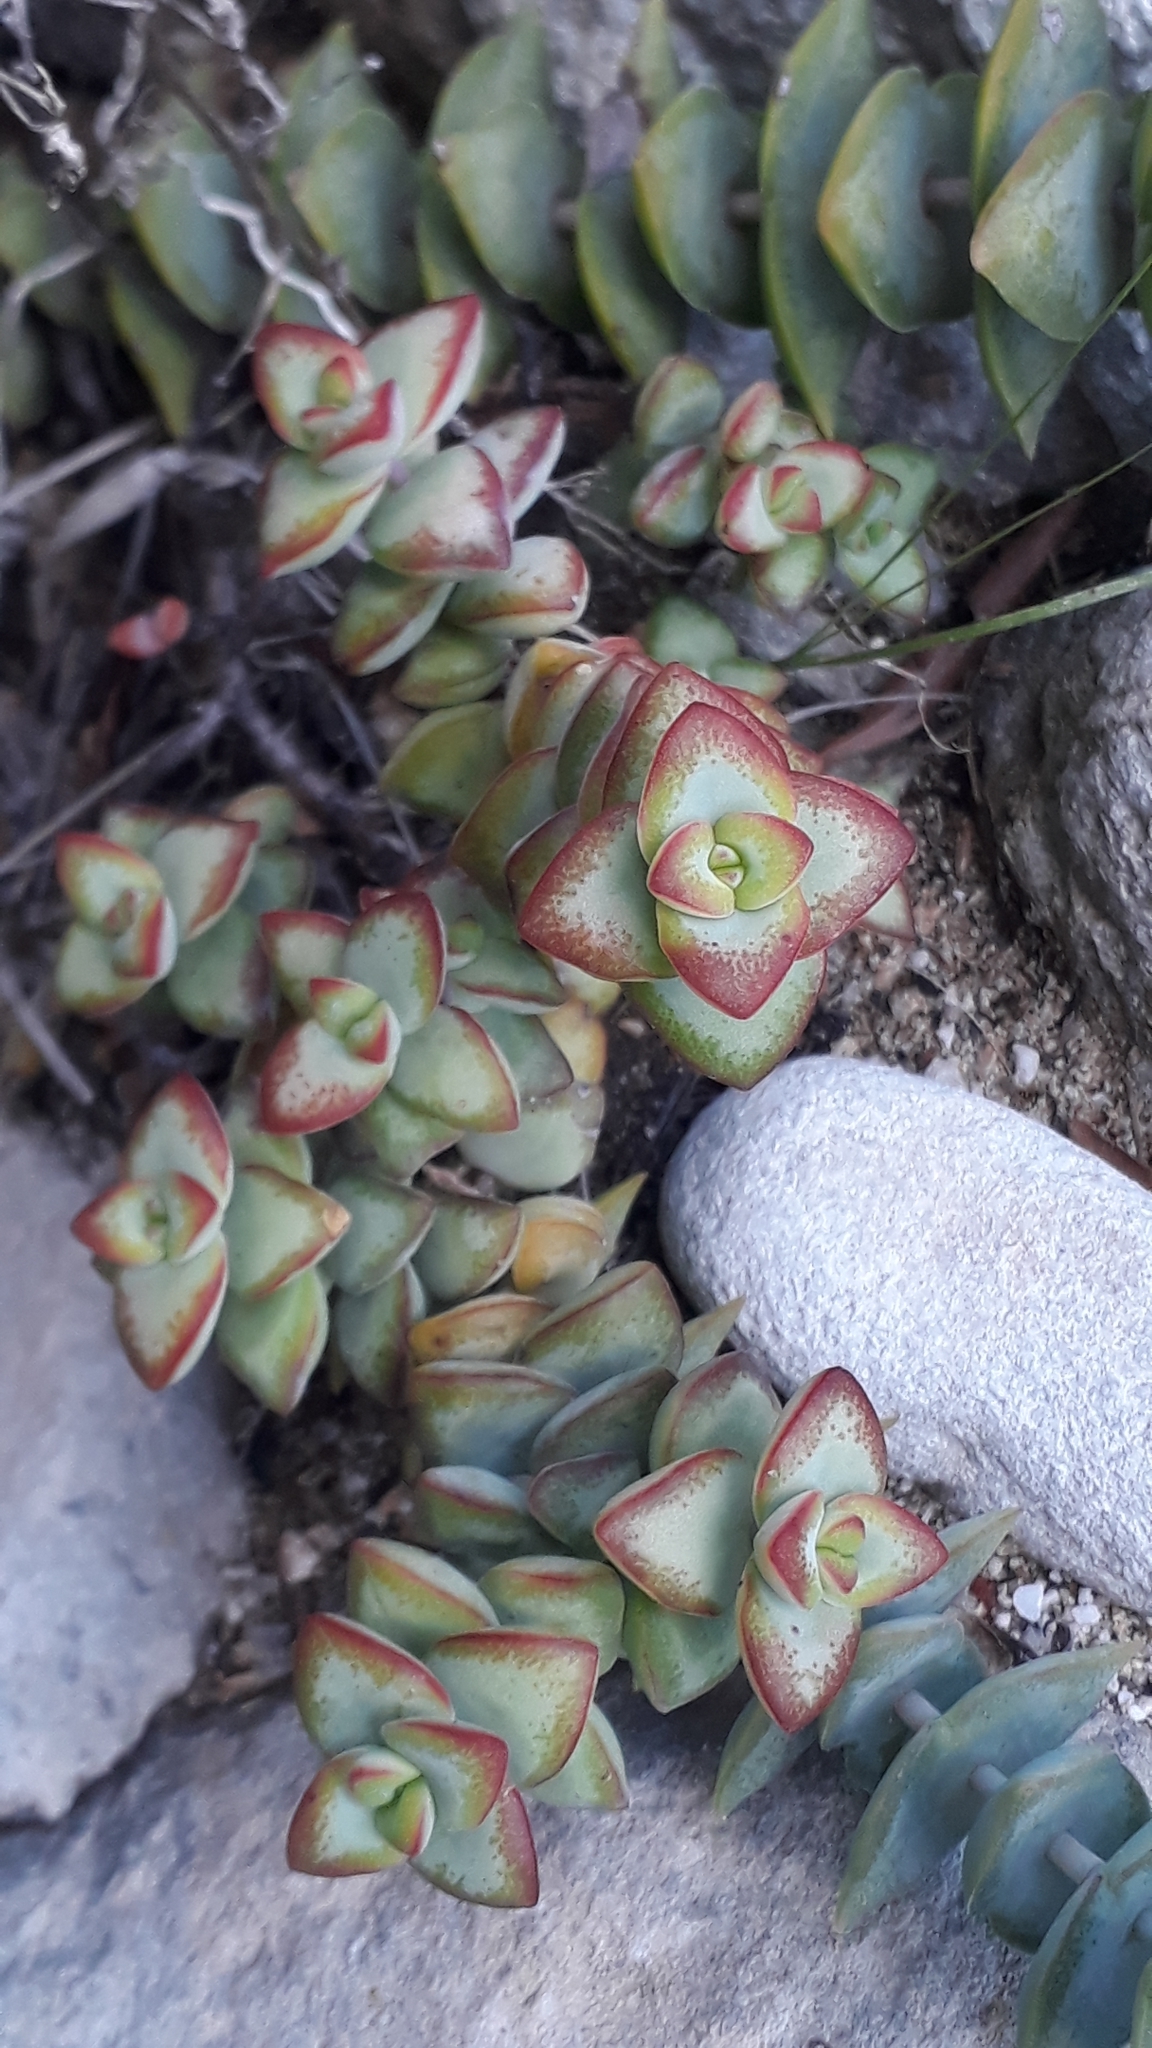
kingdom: Plantae
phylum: Tracheophyta
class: Magnoliopsida
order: Saxifragales
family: Crassulaceae
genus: Crassula
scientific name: Crassula rupestris
